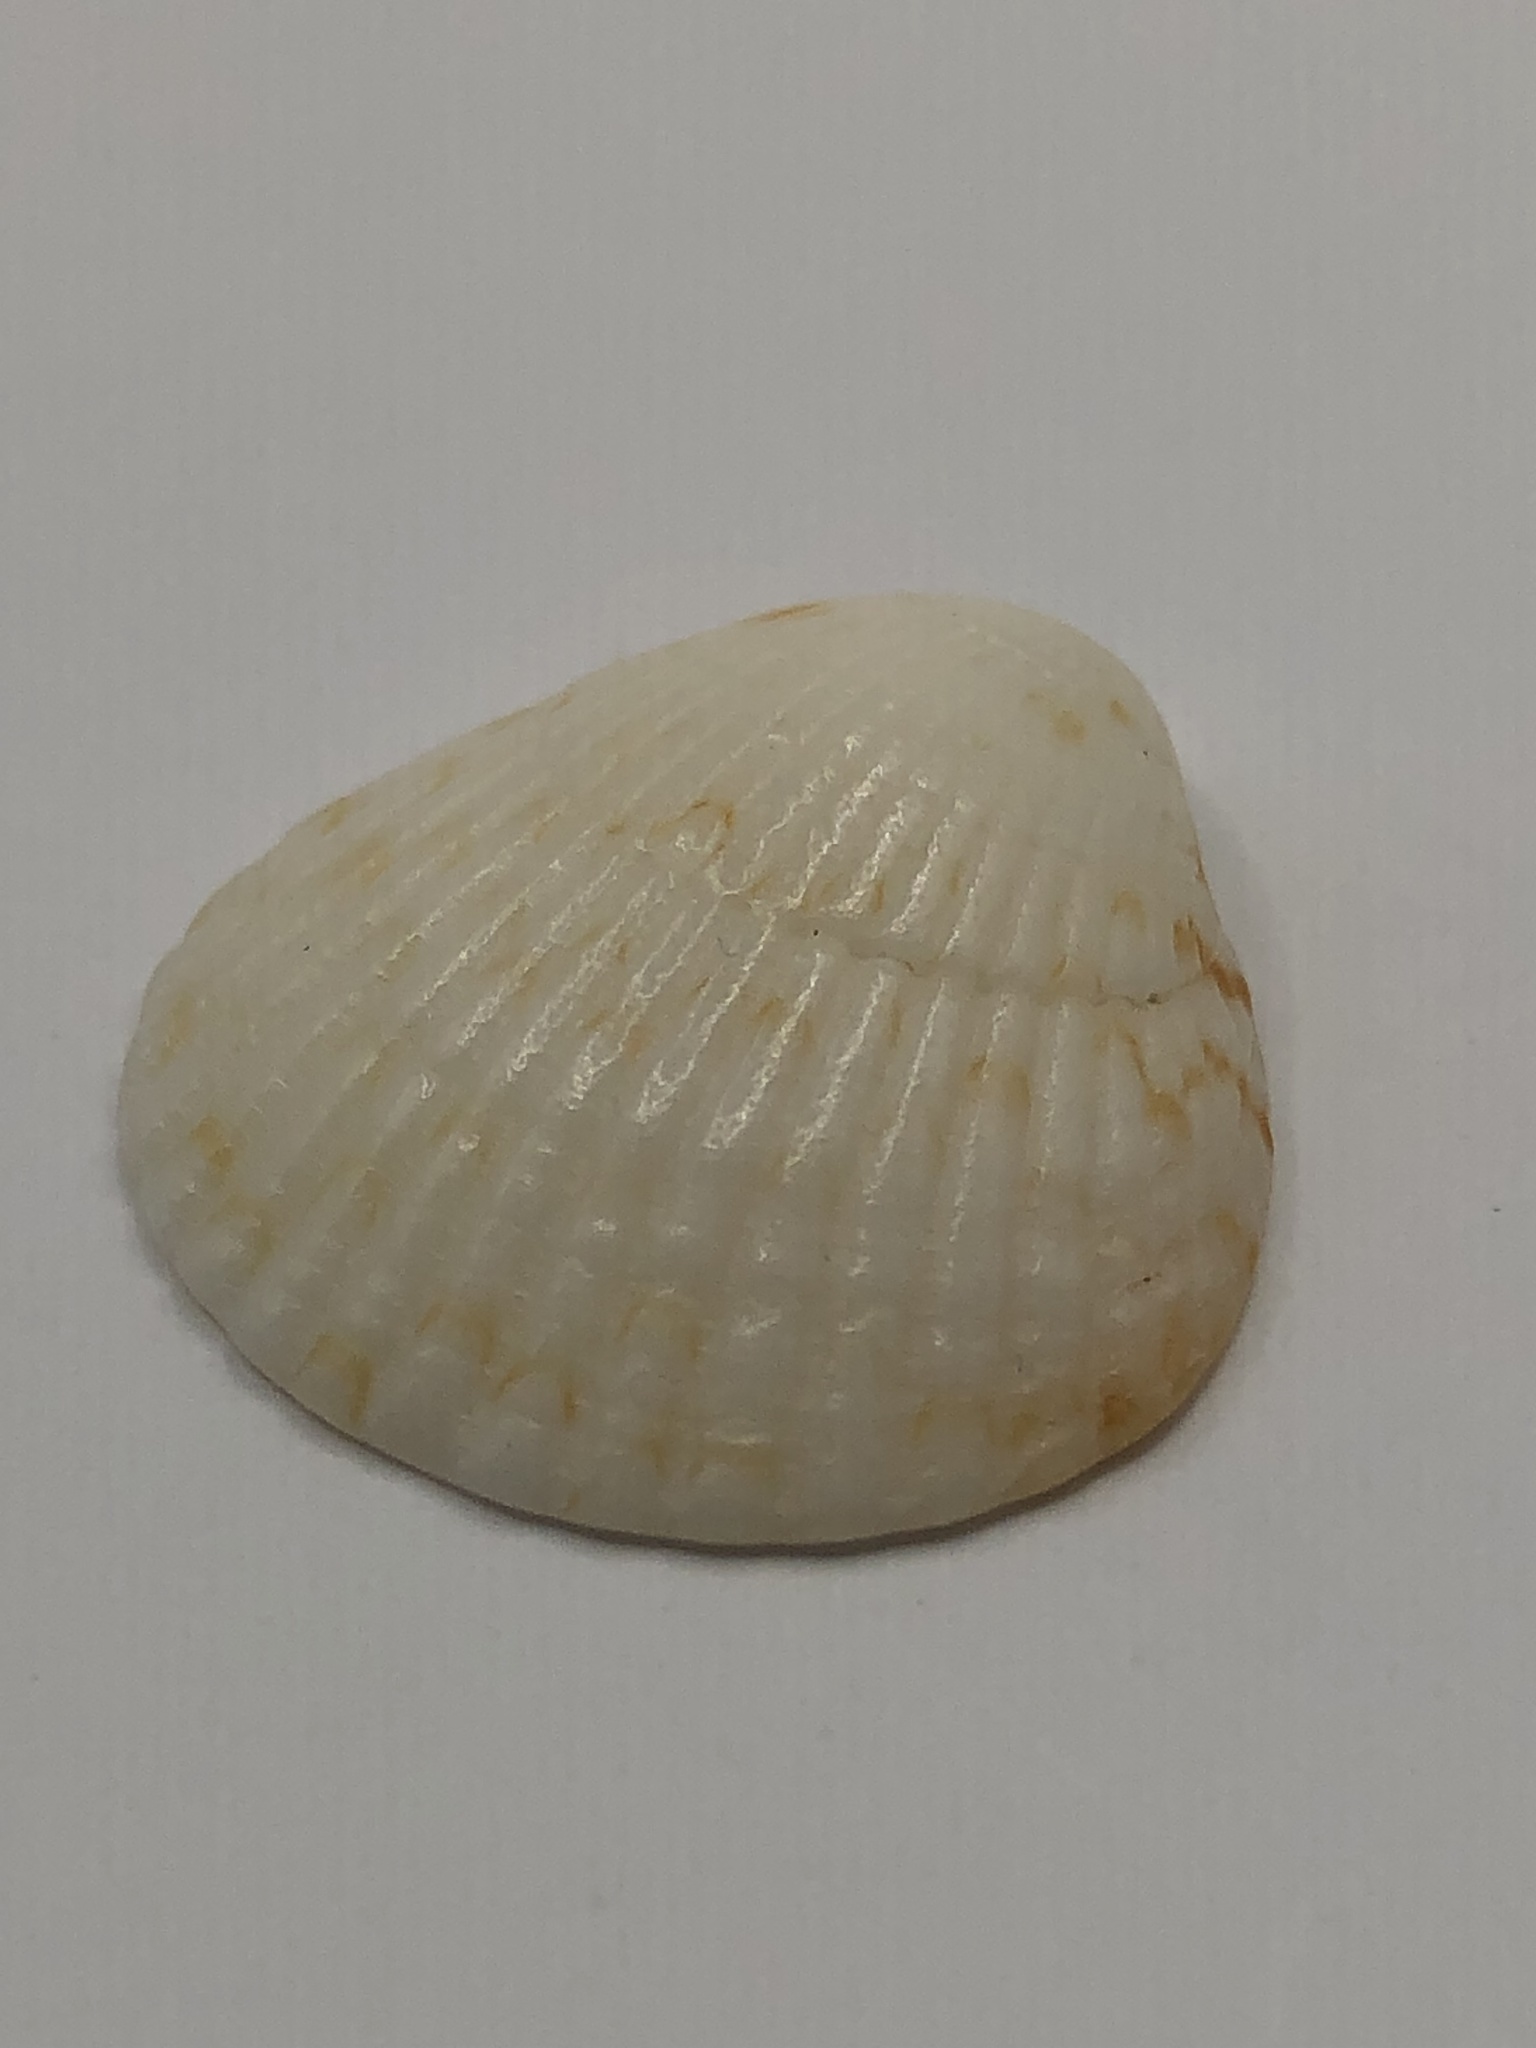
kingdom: Animalia
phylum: Mollusca
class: Bivalvia
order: Arcida
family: Glycymerididae
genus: Tucetona
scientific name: Tucetona pectinata
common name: Comb bittersweet
